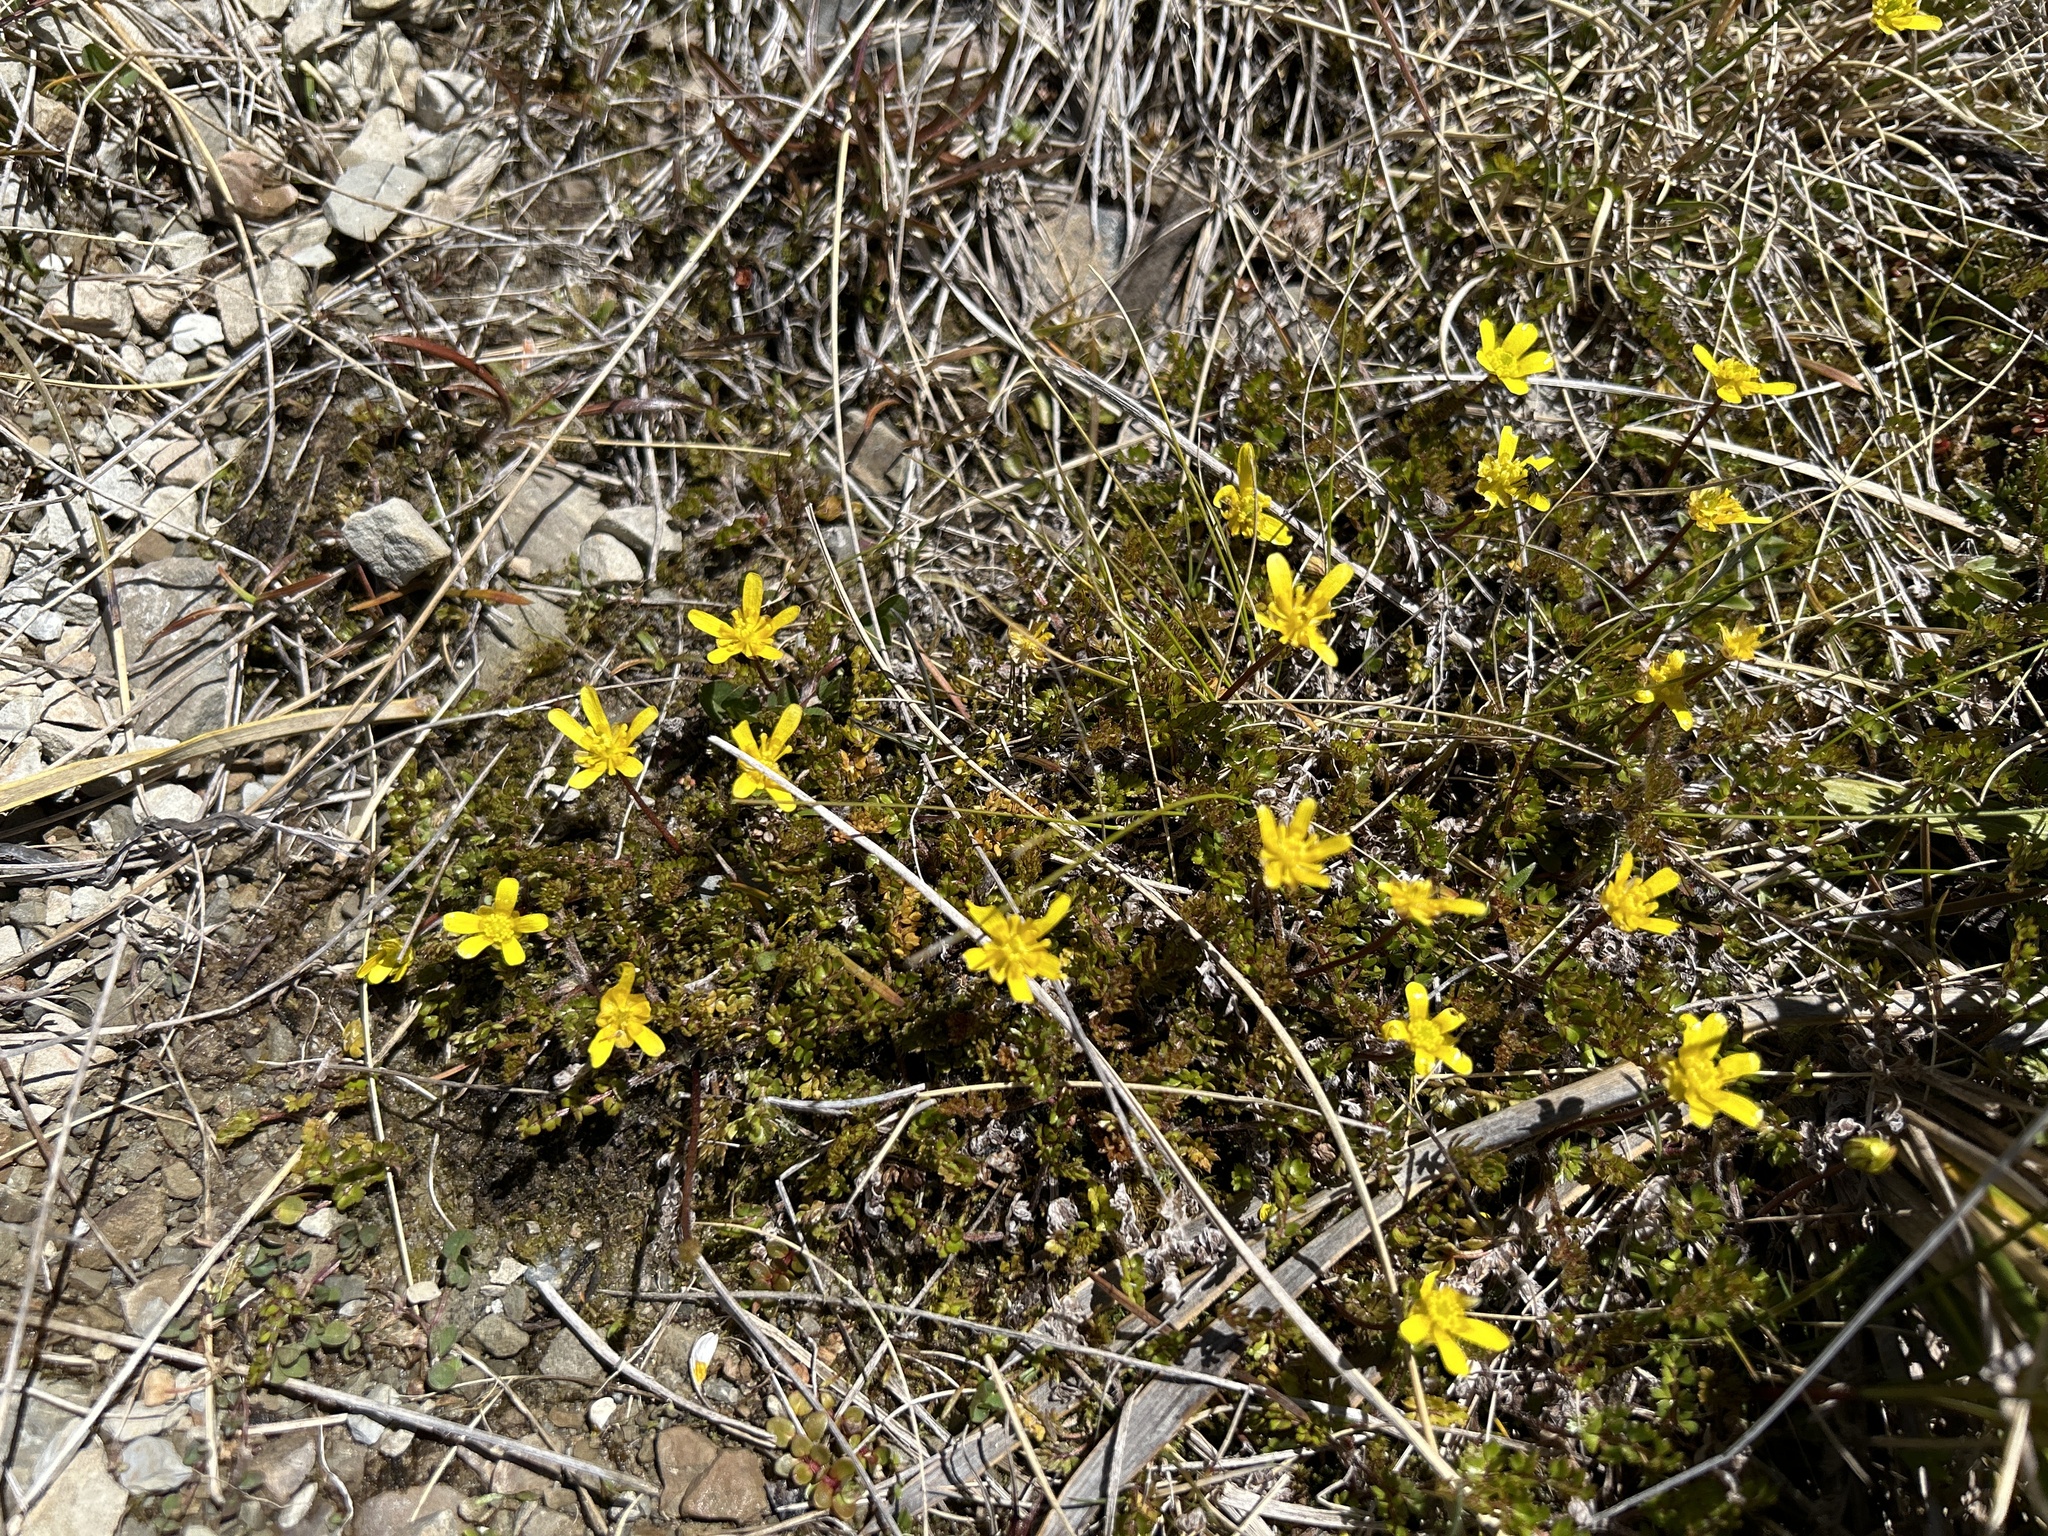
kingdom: Plantae
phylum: Tracheophyta
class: Magnoliopsida
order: Ranunculales
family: Ranunculaceae
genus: Ranunculus
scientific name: Ranunculus gracilipes
